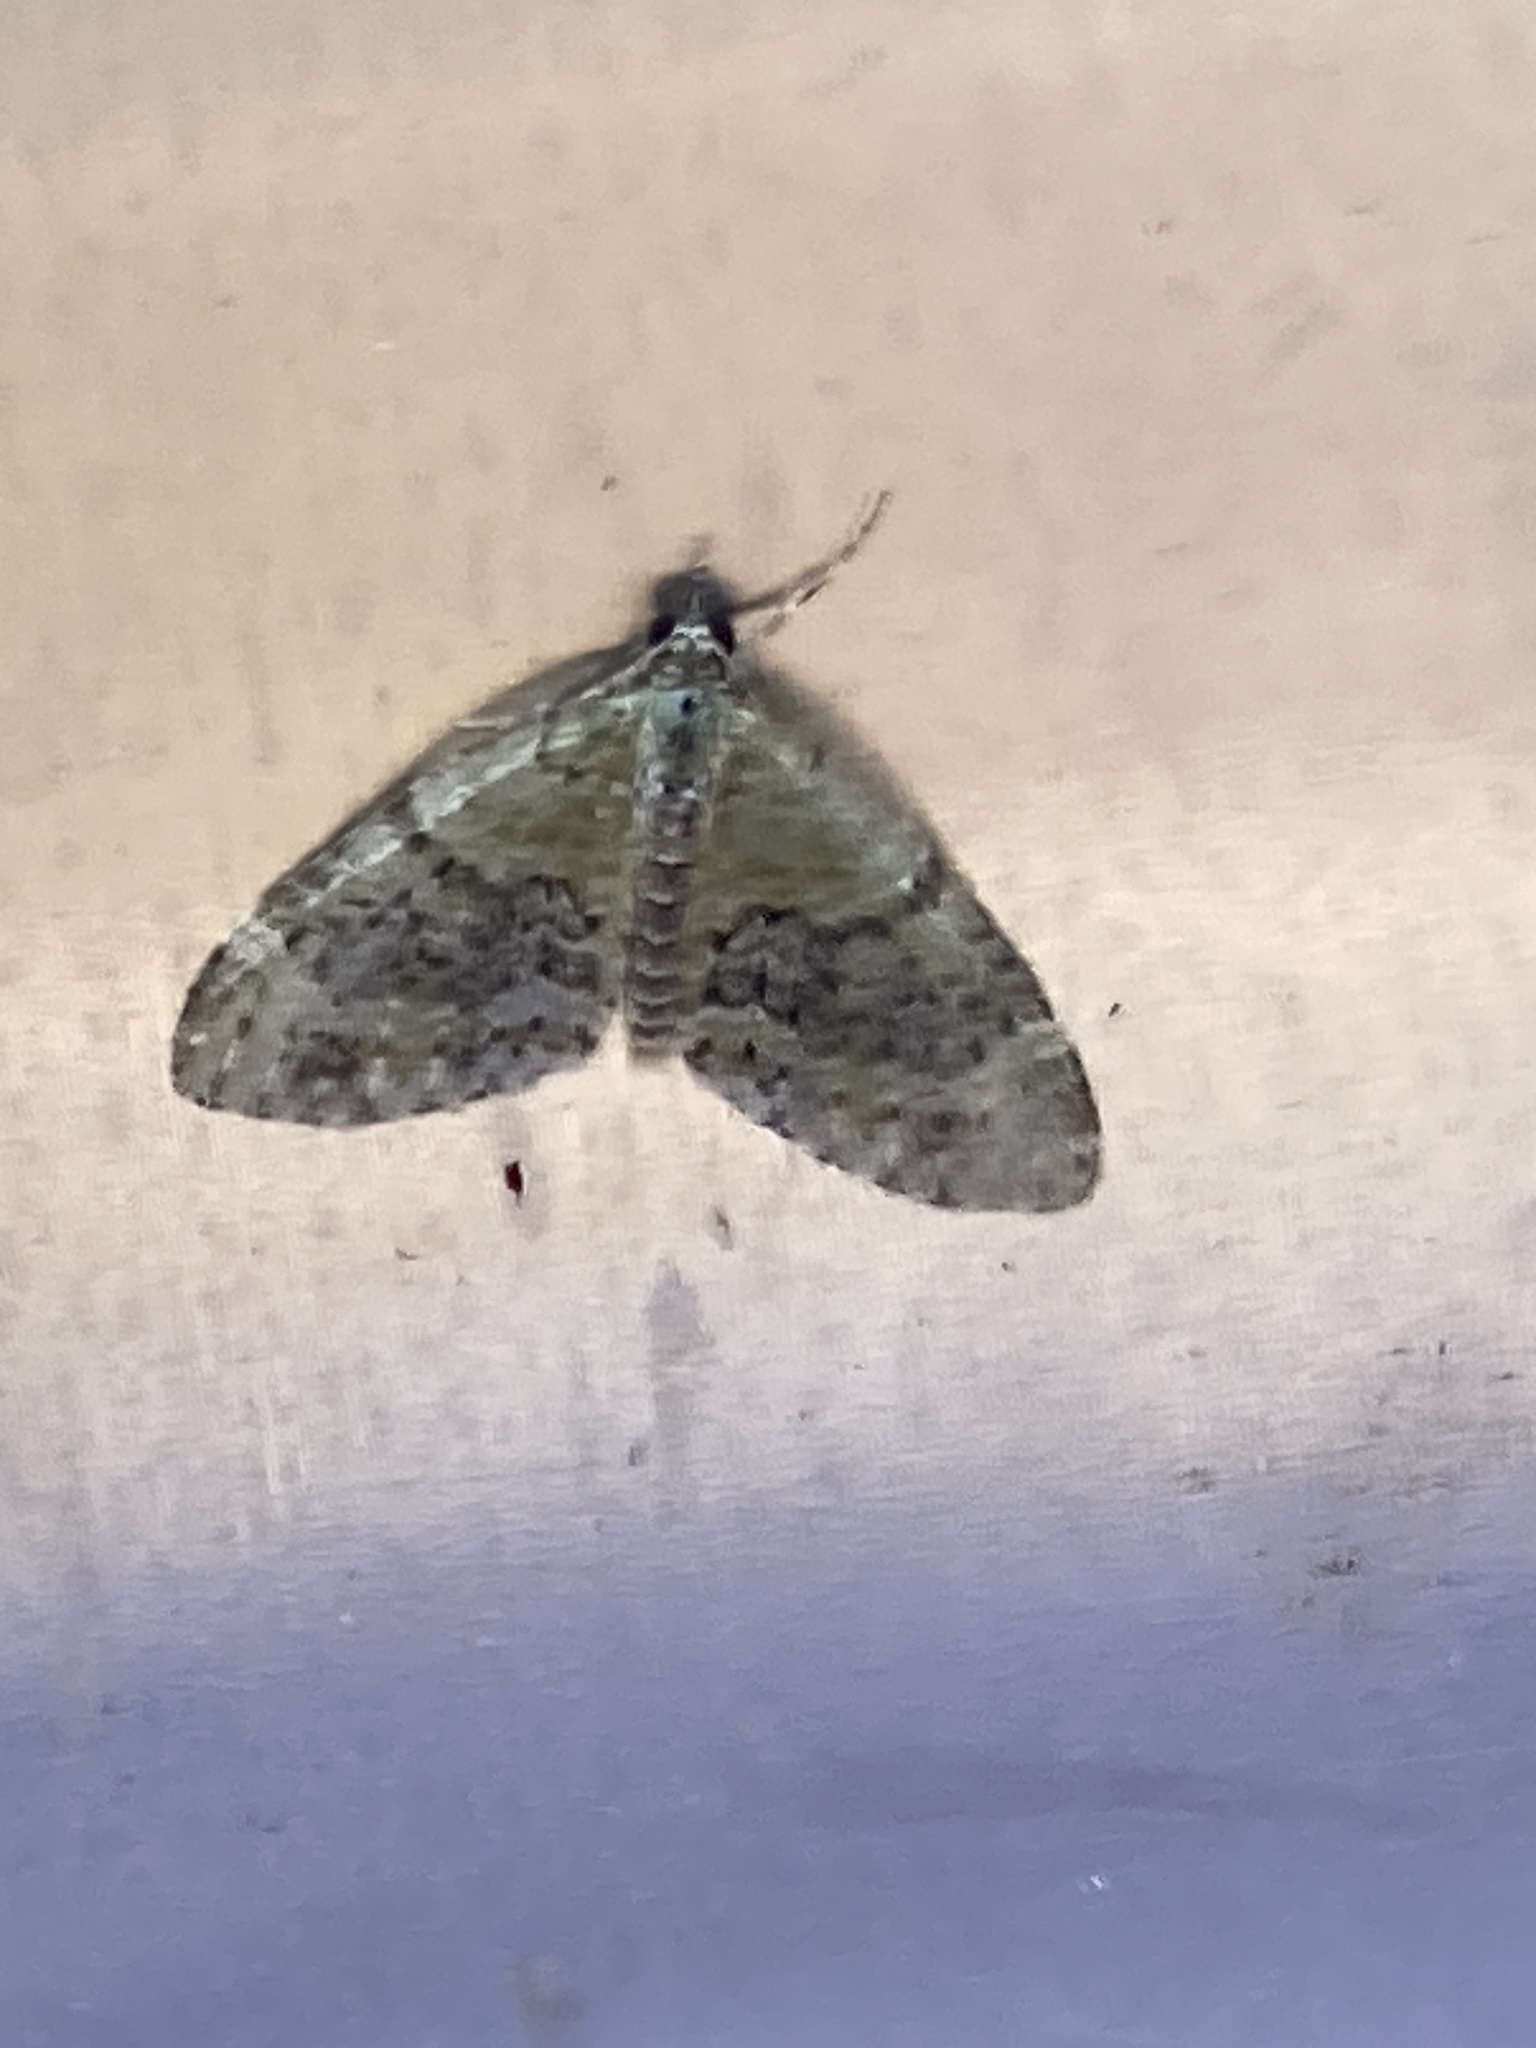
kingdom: Animalia
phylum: Arthropoda
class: Insecta
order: Lepidoptera
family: Geometridae
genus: Acasis
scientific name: Acasis viretata
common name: Yellow-barred brindle
